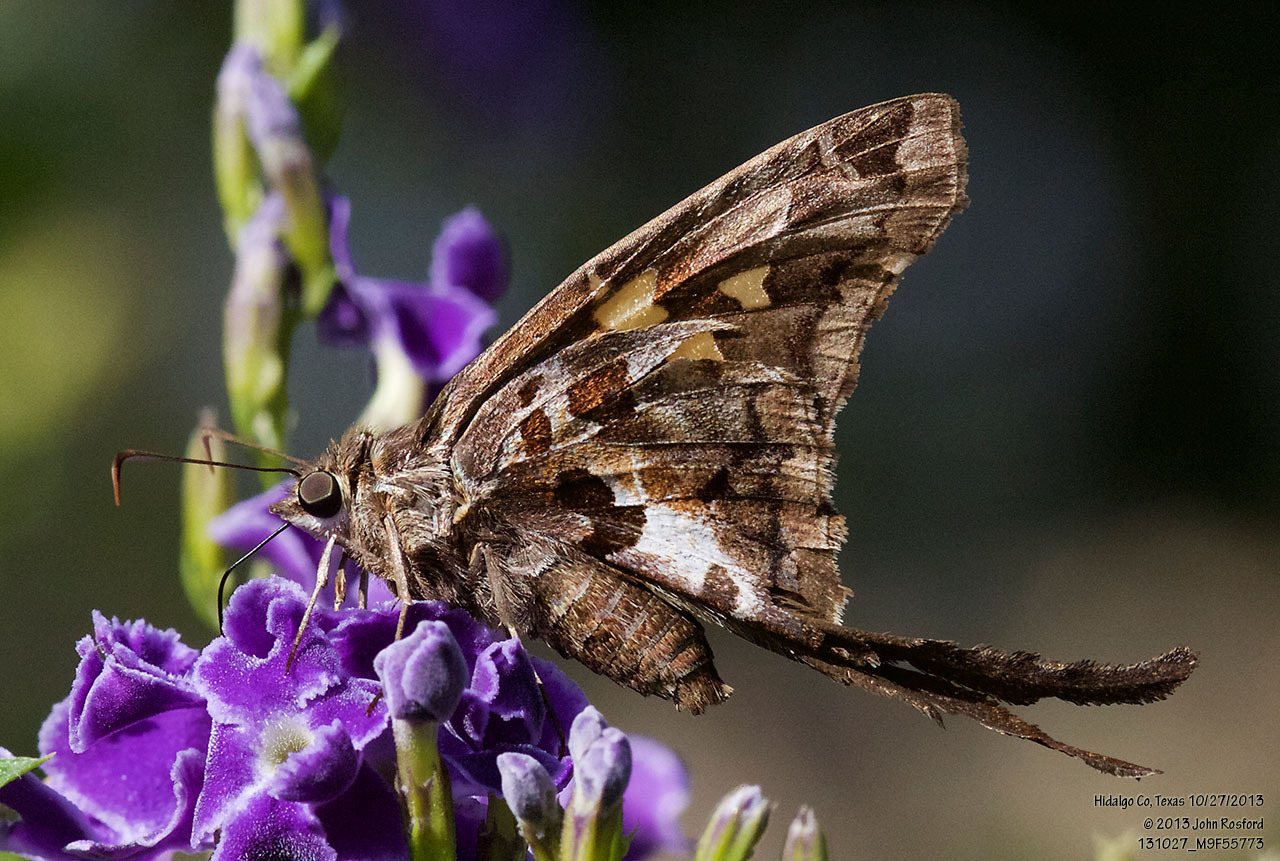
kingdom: Animalia
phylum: Arthropoda
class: Insecta
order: Lepidoptera
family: Hesperiidae
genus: Chioides
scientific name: Chioides zilpa
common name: Zilpa longtail
